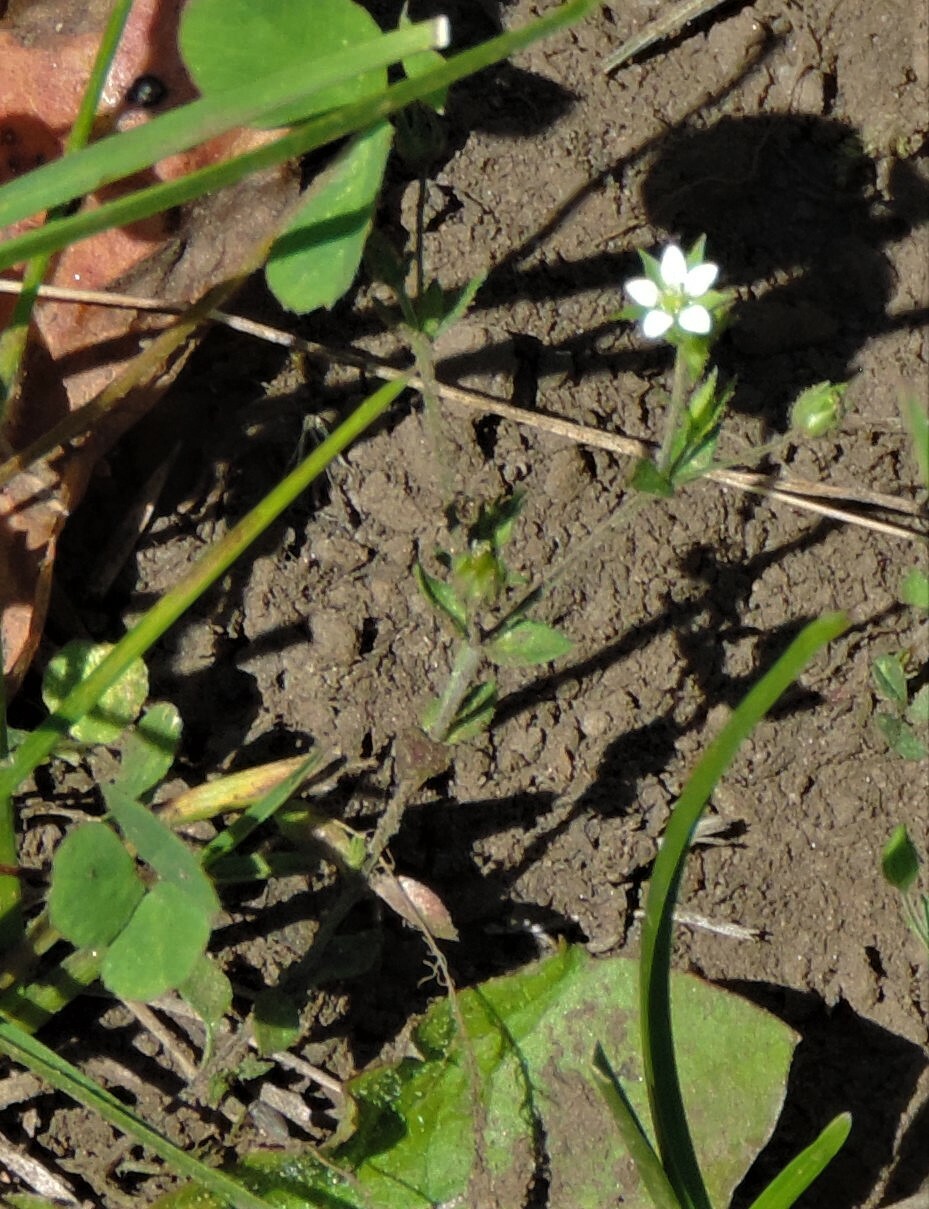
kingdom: Plantae
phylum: Tracheophyta
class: Magnoliopsida
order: Caryophyllales
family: Caryophyllaceae
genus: Arenaria
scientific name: Arenaria serpyllifolia
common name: Thyme-leaved sandwort
